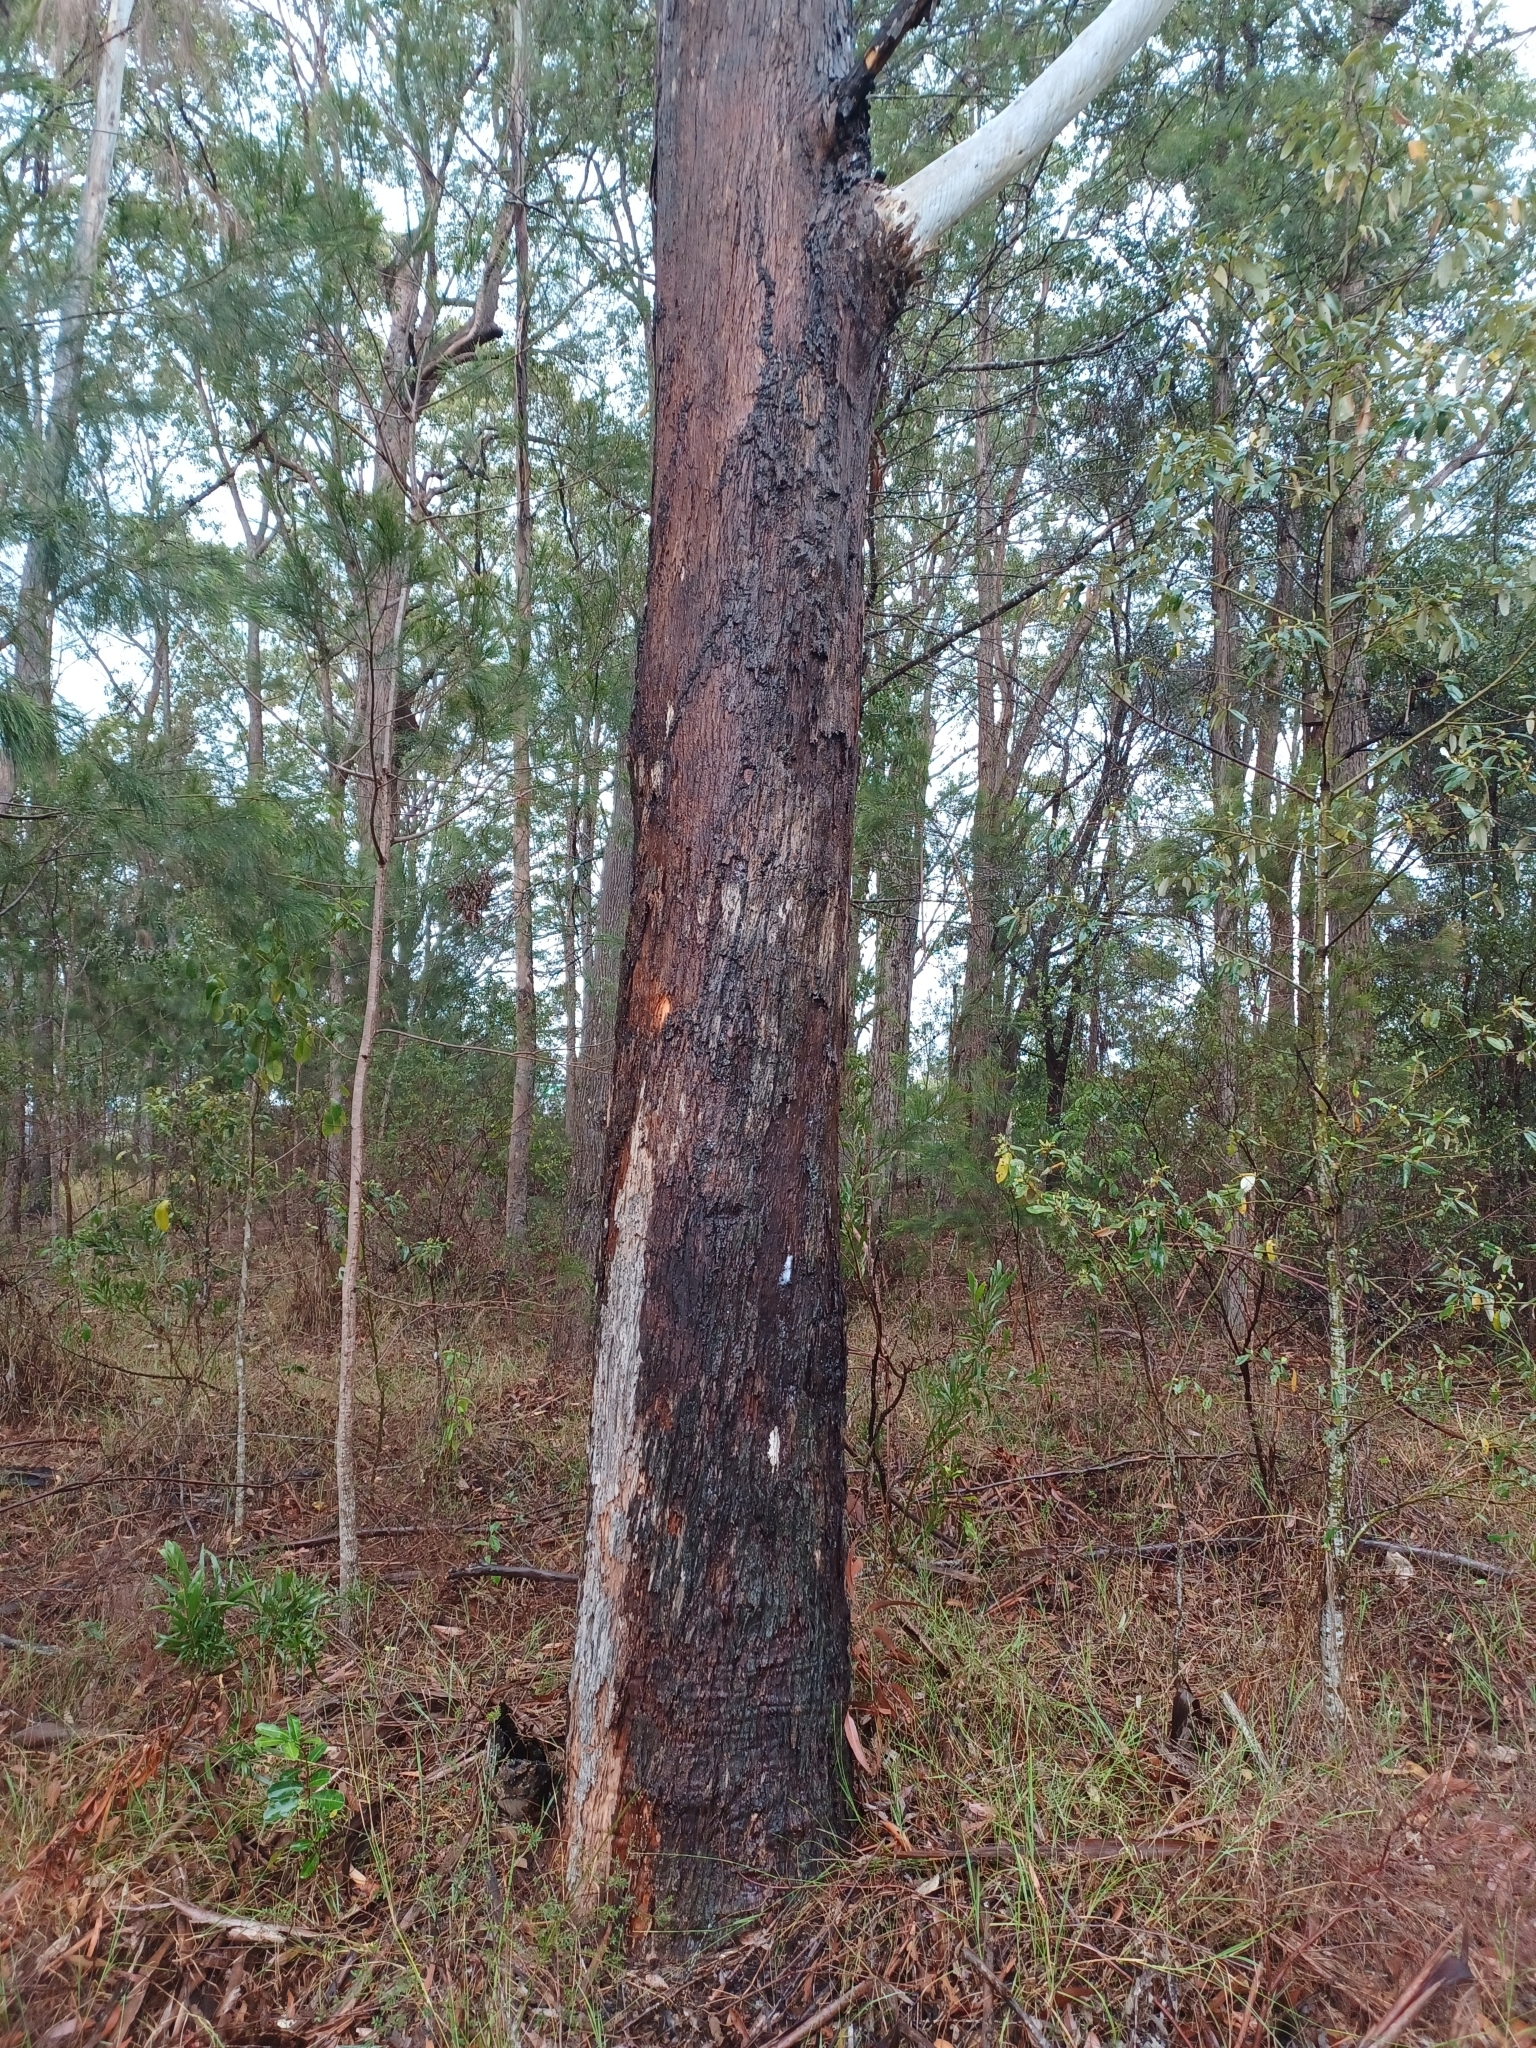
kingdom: Plantae
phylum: Tracheophyta
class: Magnoliopsida
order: Myrtales
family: Myrtaceae
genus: Eucalyptus
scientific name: Eucalyptus pilularis
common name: Blackbutt
